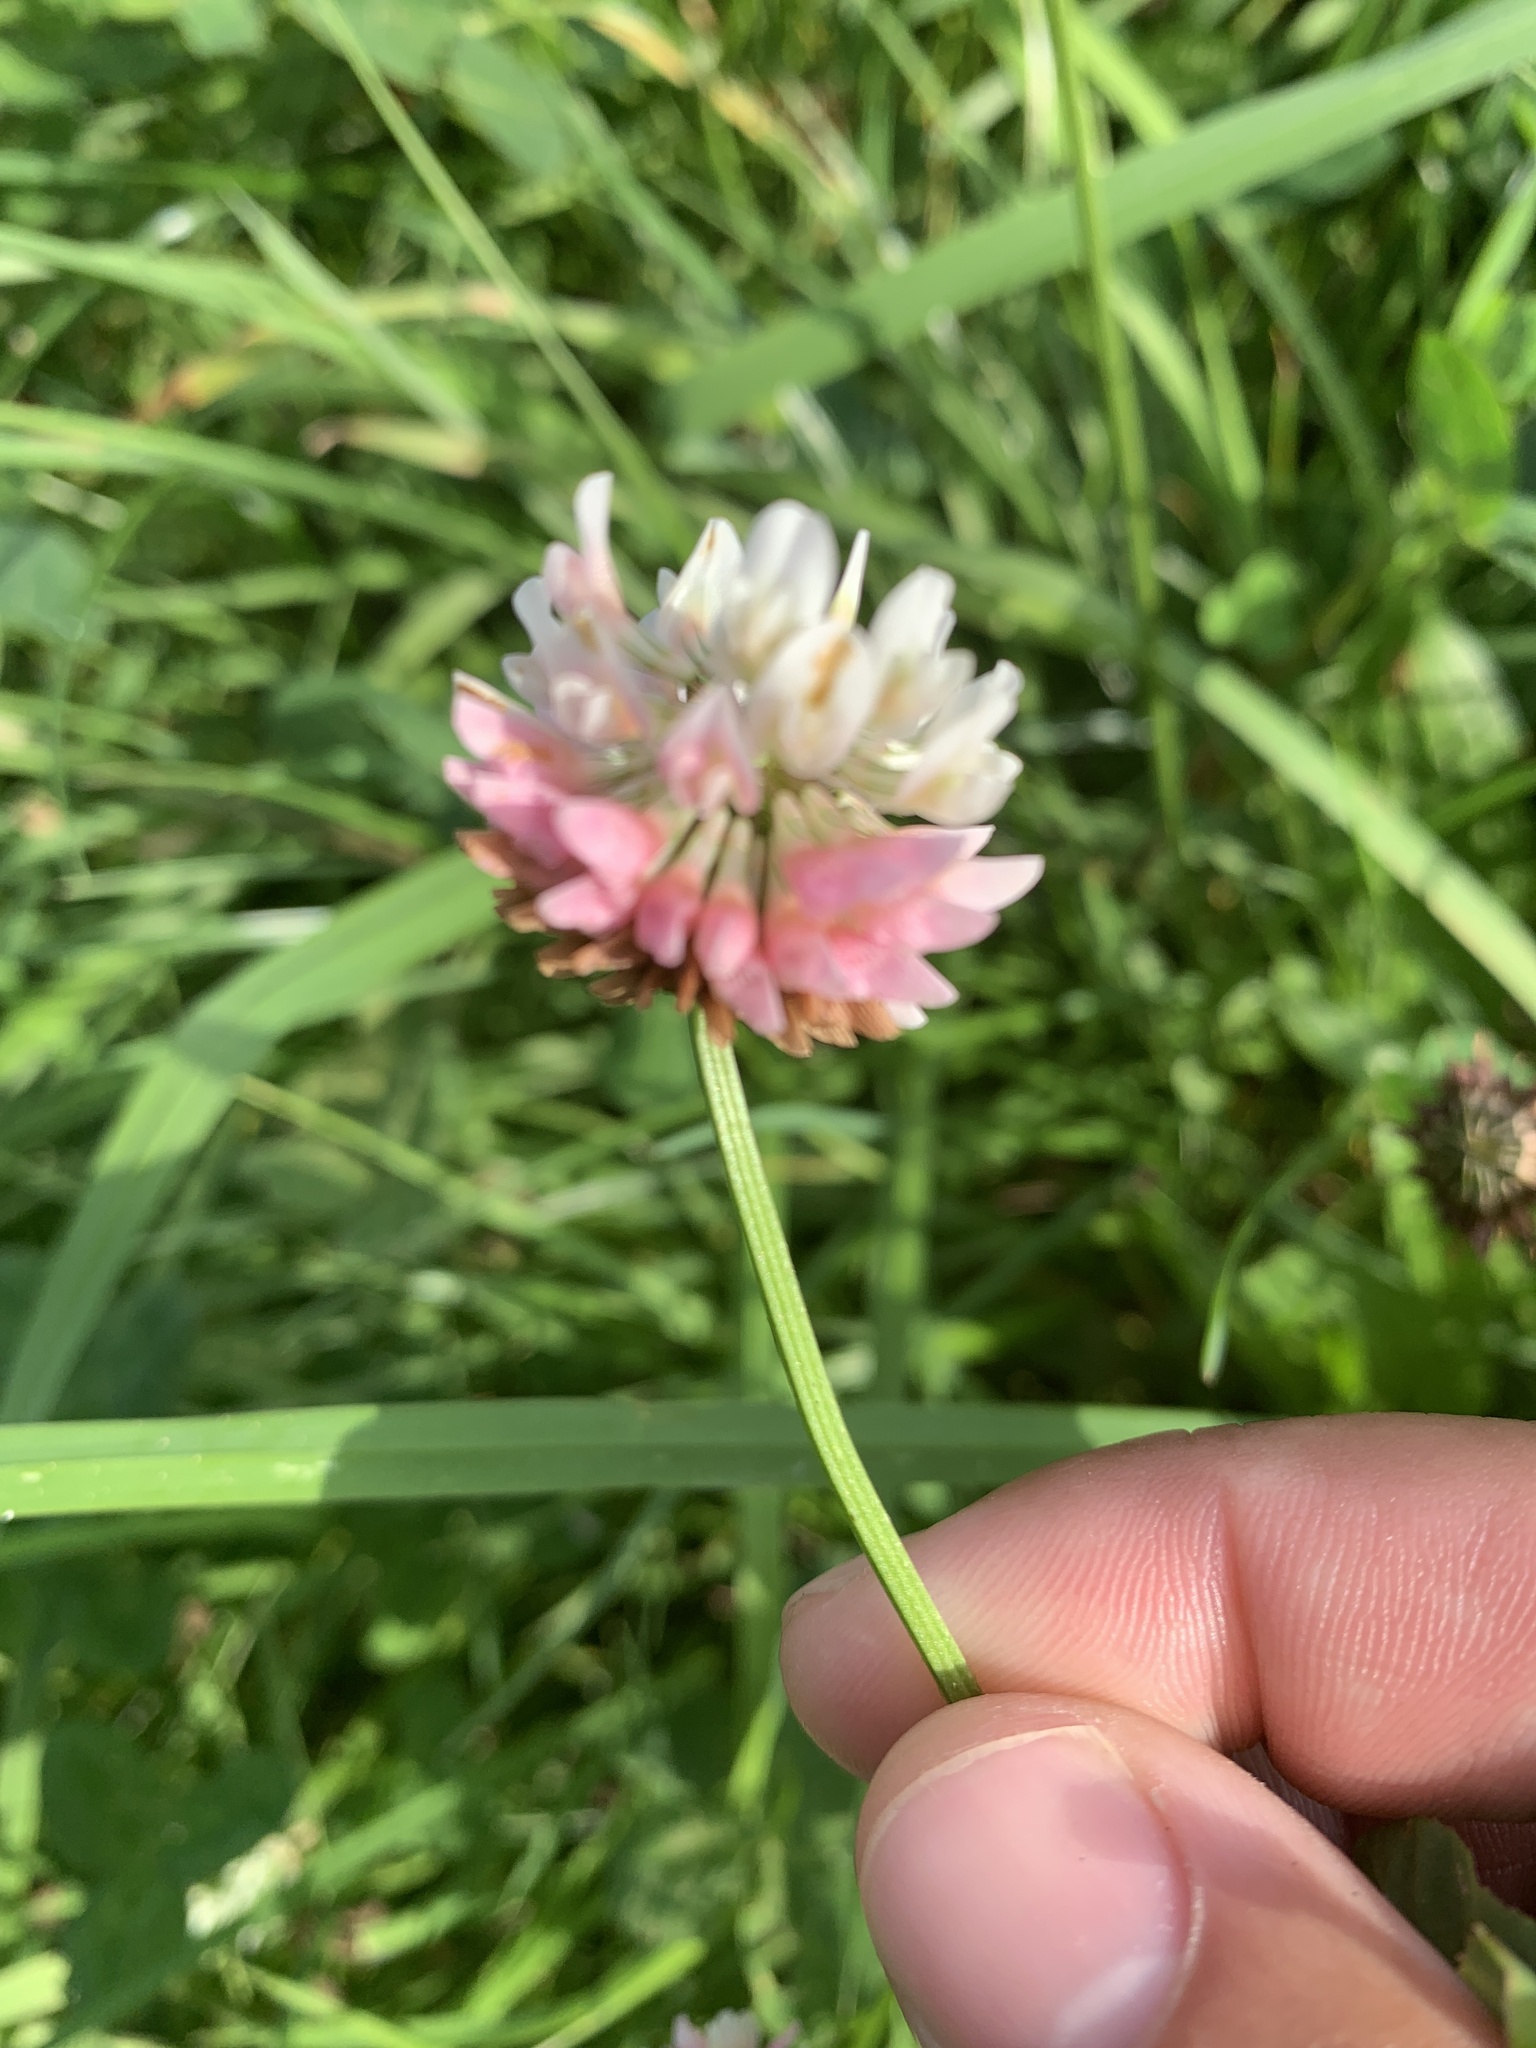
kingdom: Plantae
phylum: Tracheophyta
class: Magnoliopsida
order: Fabales
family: Fabaceae
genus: Trifolium
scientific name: Trifolium hybridum
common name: Alsike clover
